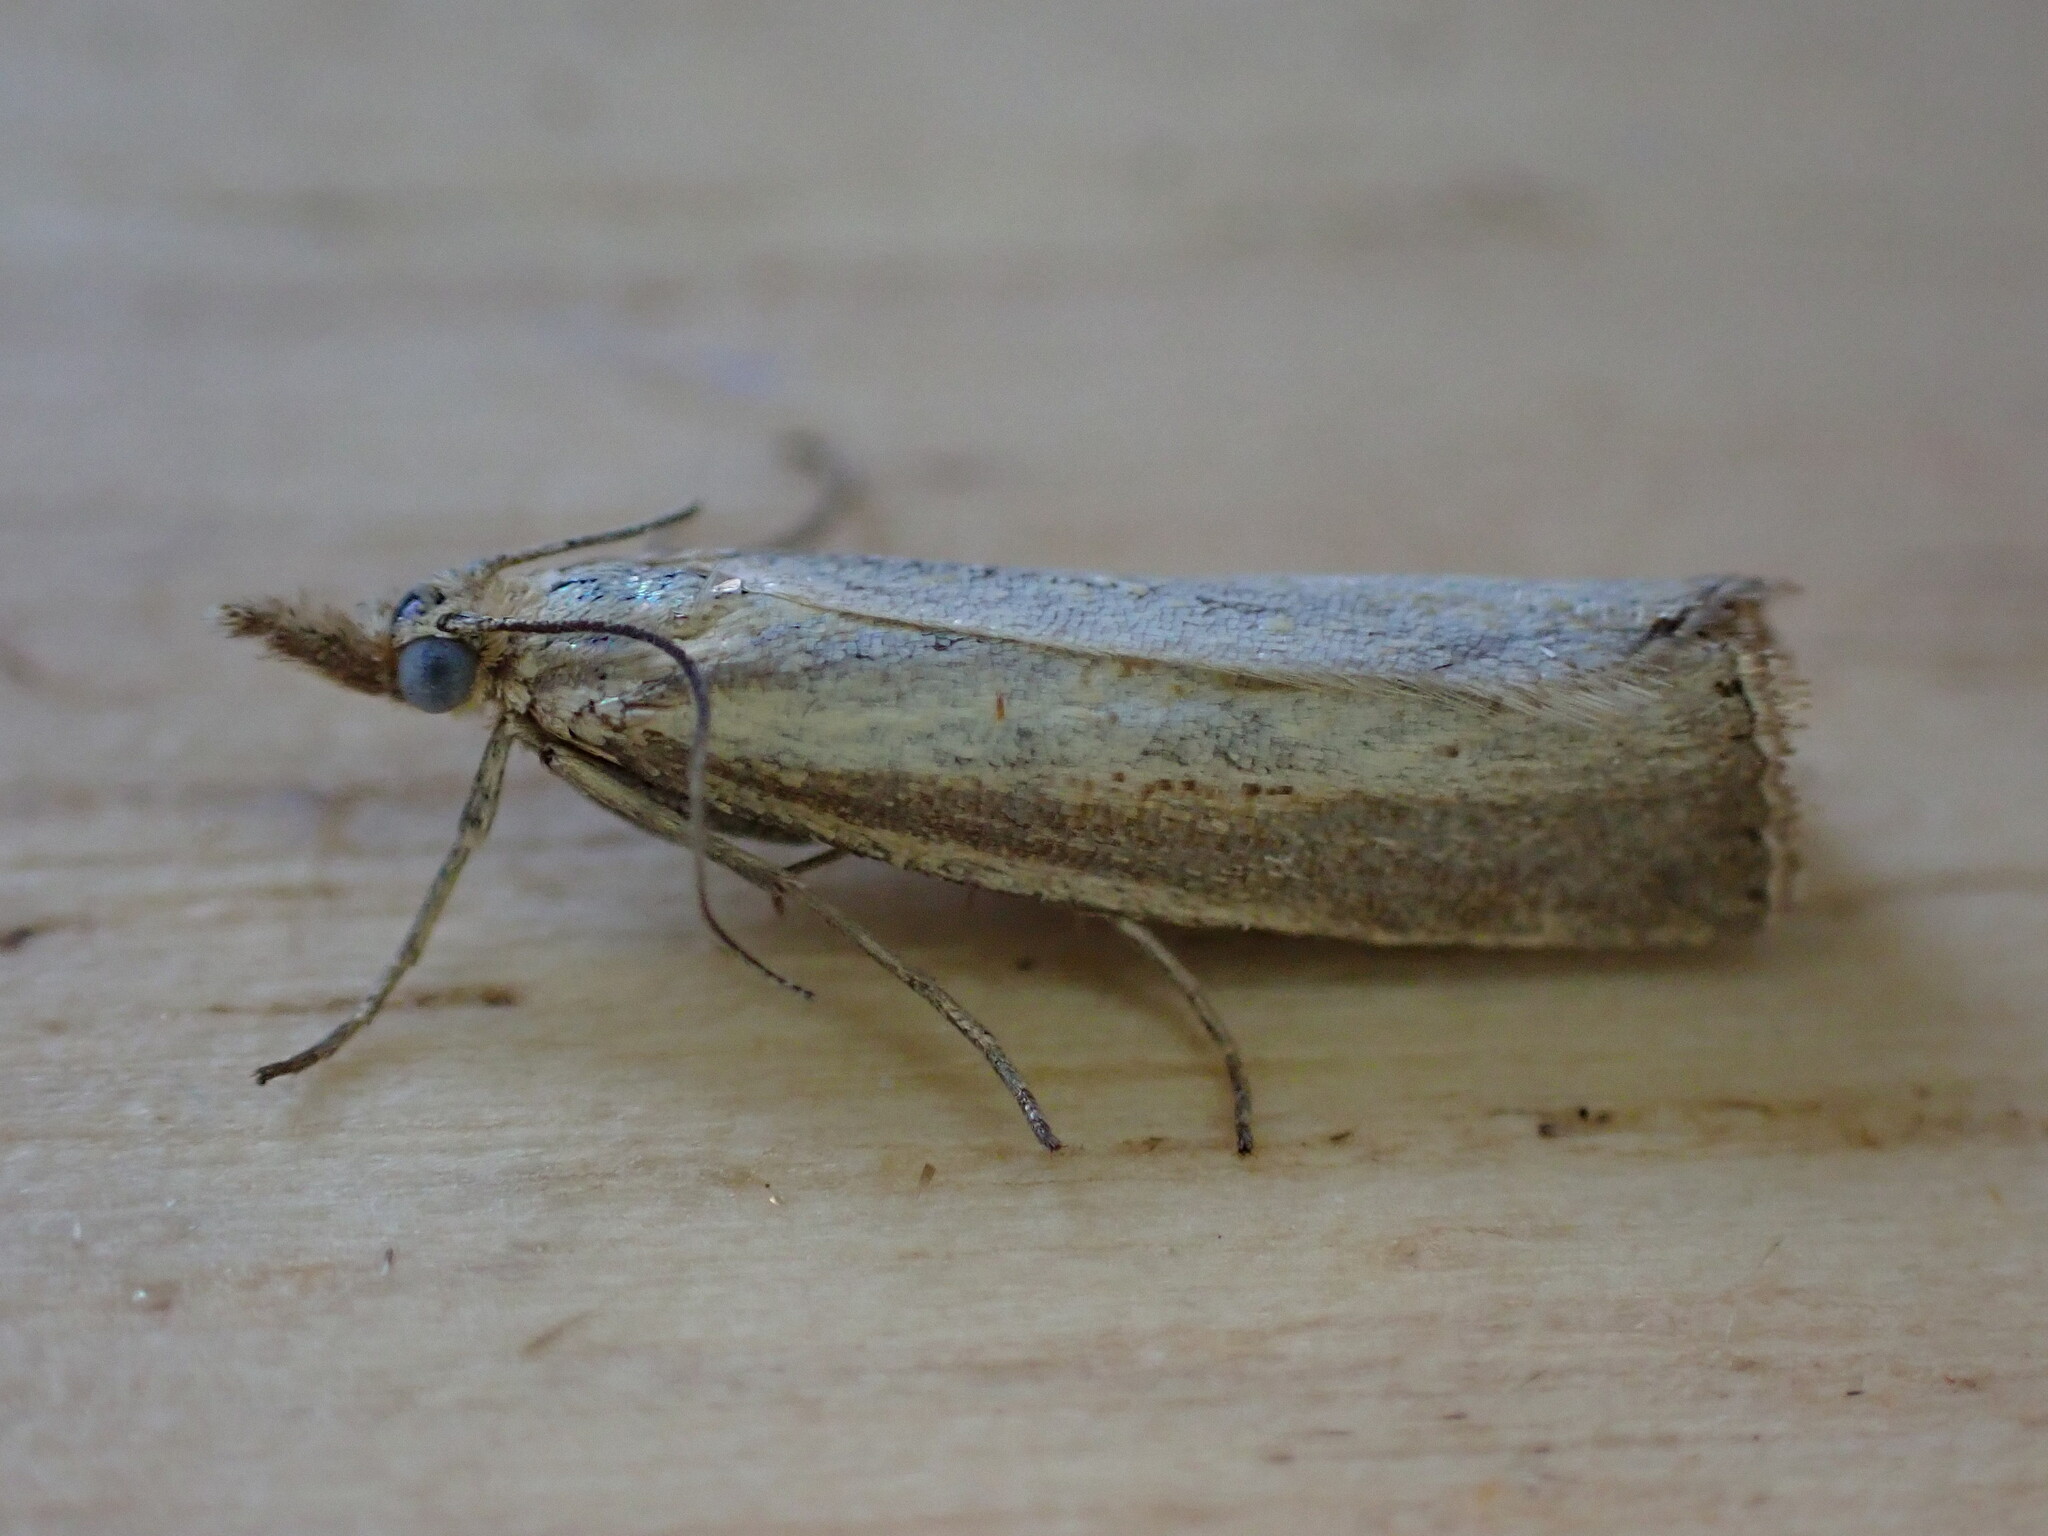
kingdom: Animalia
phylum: Arthropoda
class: Insecta
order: Lepidoptera
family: Crambidae
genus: Agriphila
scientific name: Agriphila straminella
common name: Straw grass-veneer
